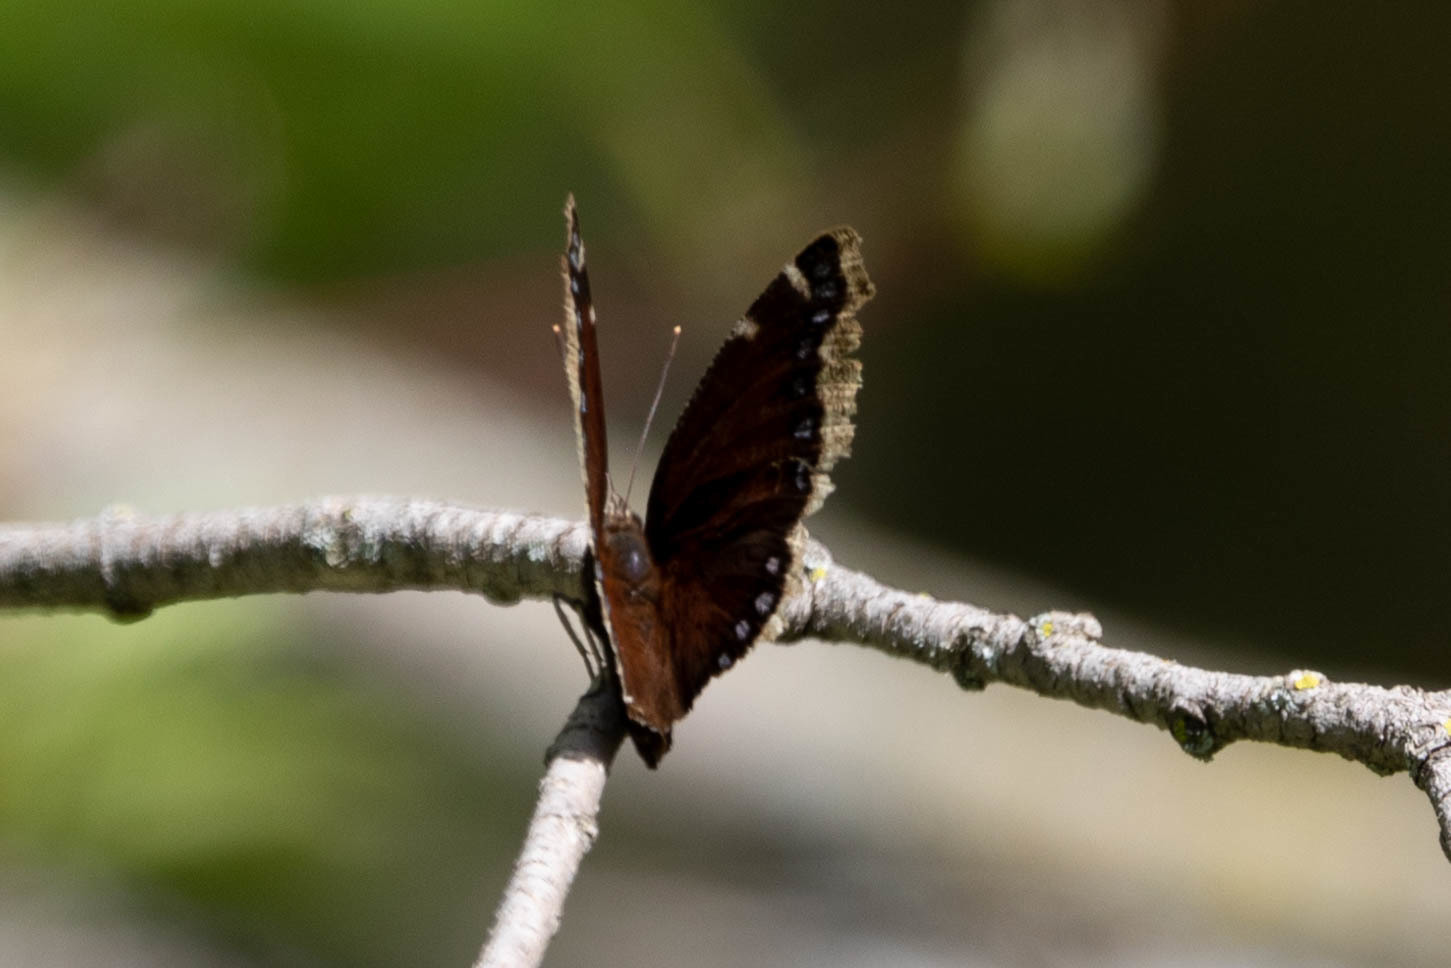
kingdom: Animalia
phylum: Arthropoda
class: Insecta
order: Lepidoptera
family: Nymphalidae
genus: Nymphalis
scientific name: Nymphalis antiopa
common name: Camberwell beauty
